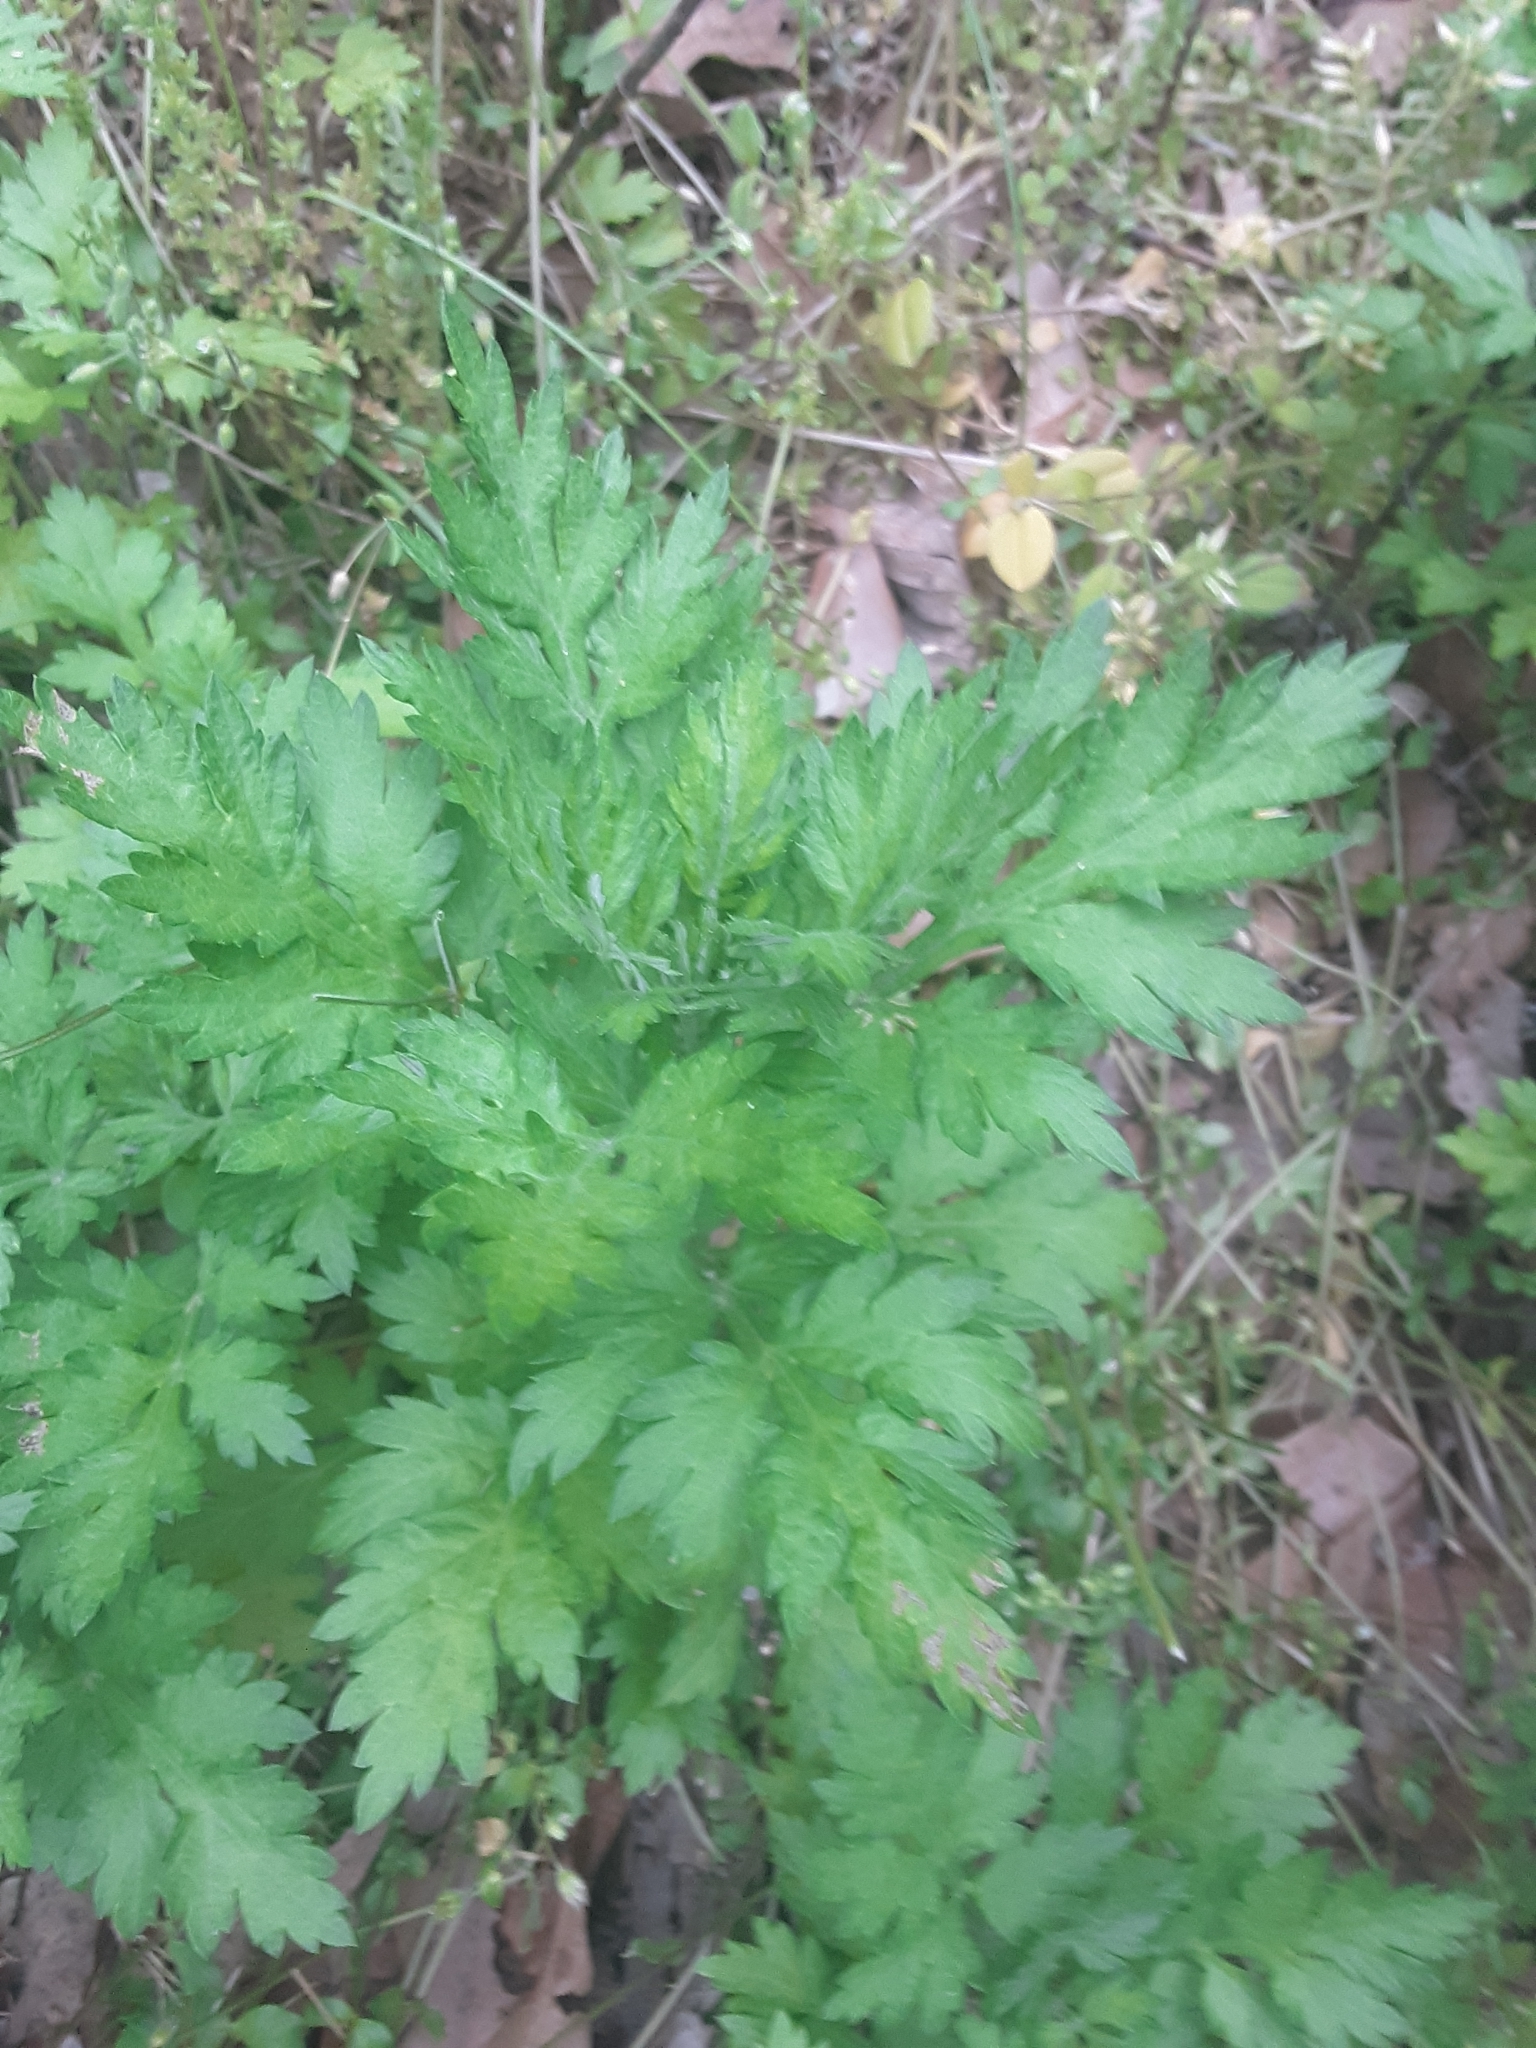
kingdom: Plantae
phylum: Tracheophyta
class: Magnoliopsida
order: Asterales
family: Asteraceae
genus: Artemisia
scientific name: Artemisia vulgaris
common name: Mugwort
